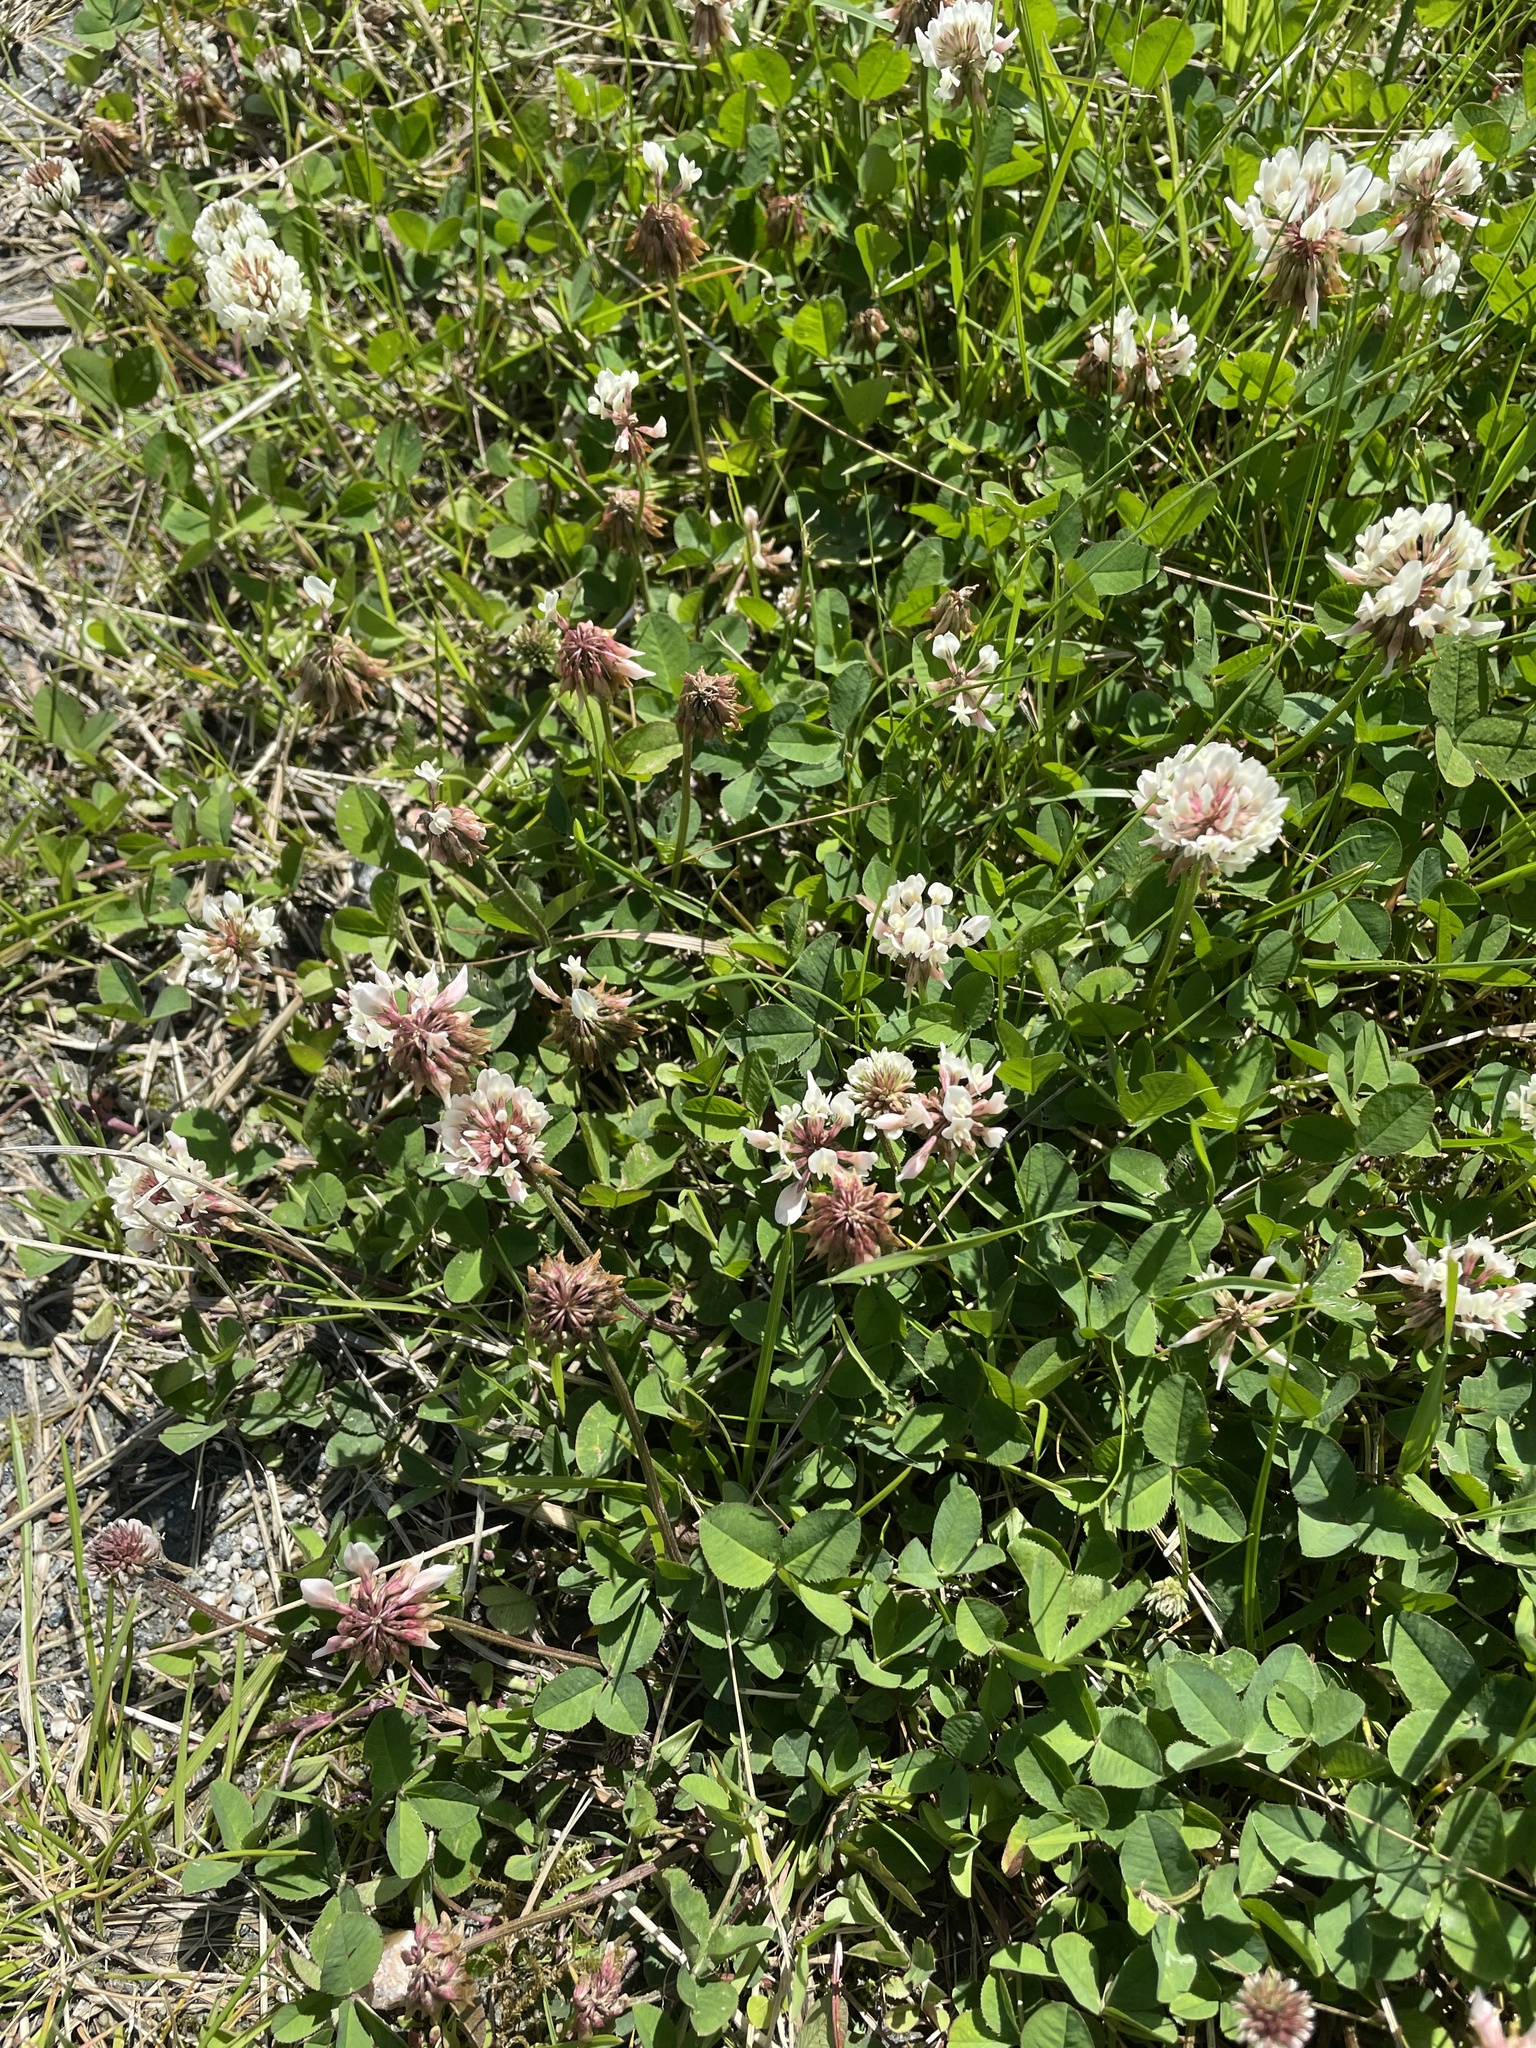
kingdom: Plantae
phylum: Tracheophyta
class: Magnoliopsida
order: Fabales
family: Fabaceae
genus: Trifolium
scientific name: Trifolium repens
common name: White clover
